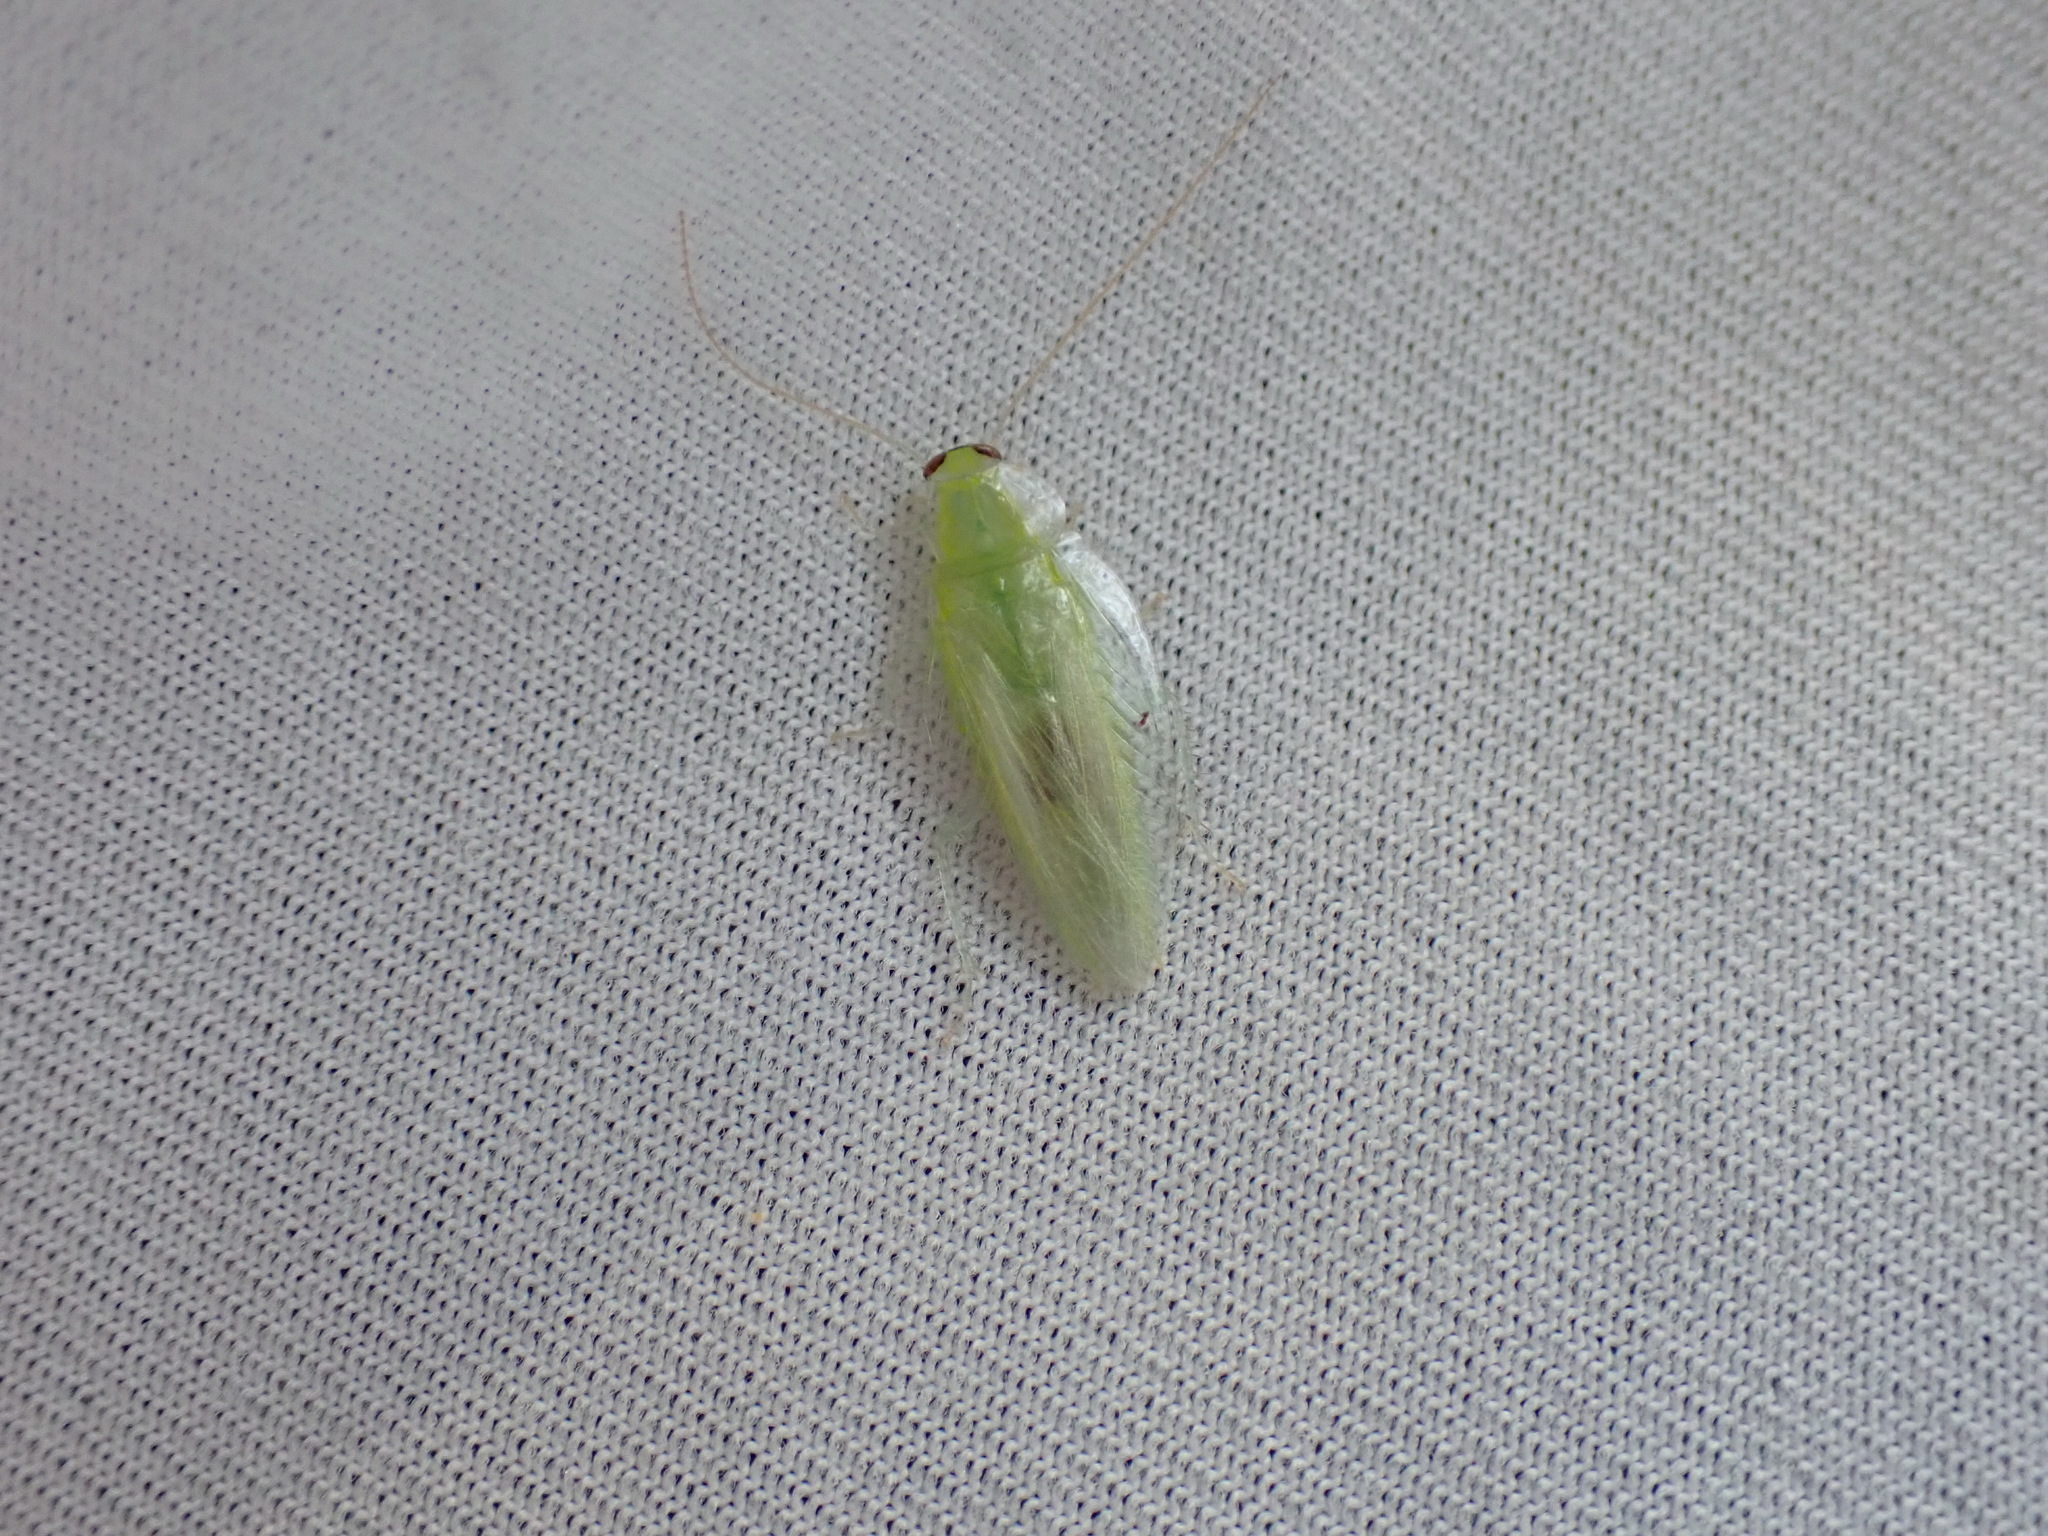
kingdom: Animalia
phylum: Arthropoda
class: Insecta
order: Blattodea
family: Ectobiidae
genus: Mediastinia
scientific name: Mediastinia delicatula
